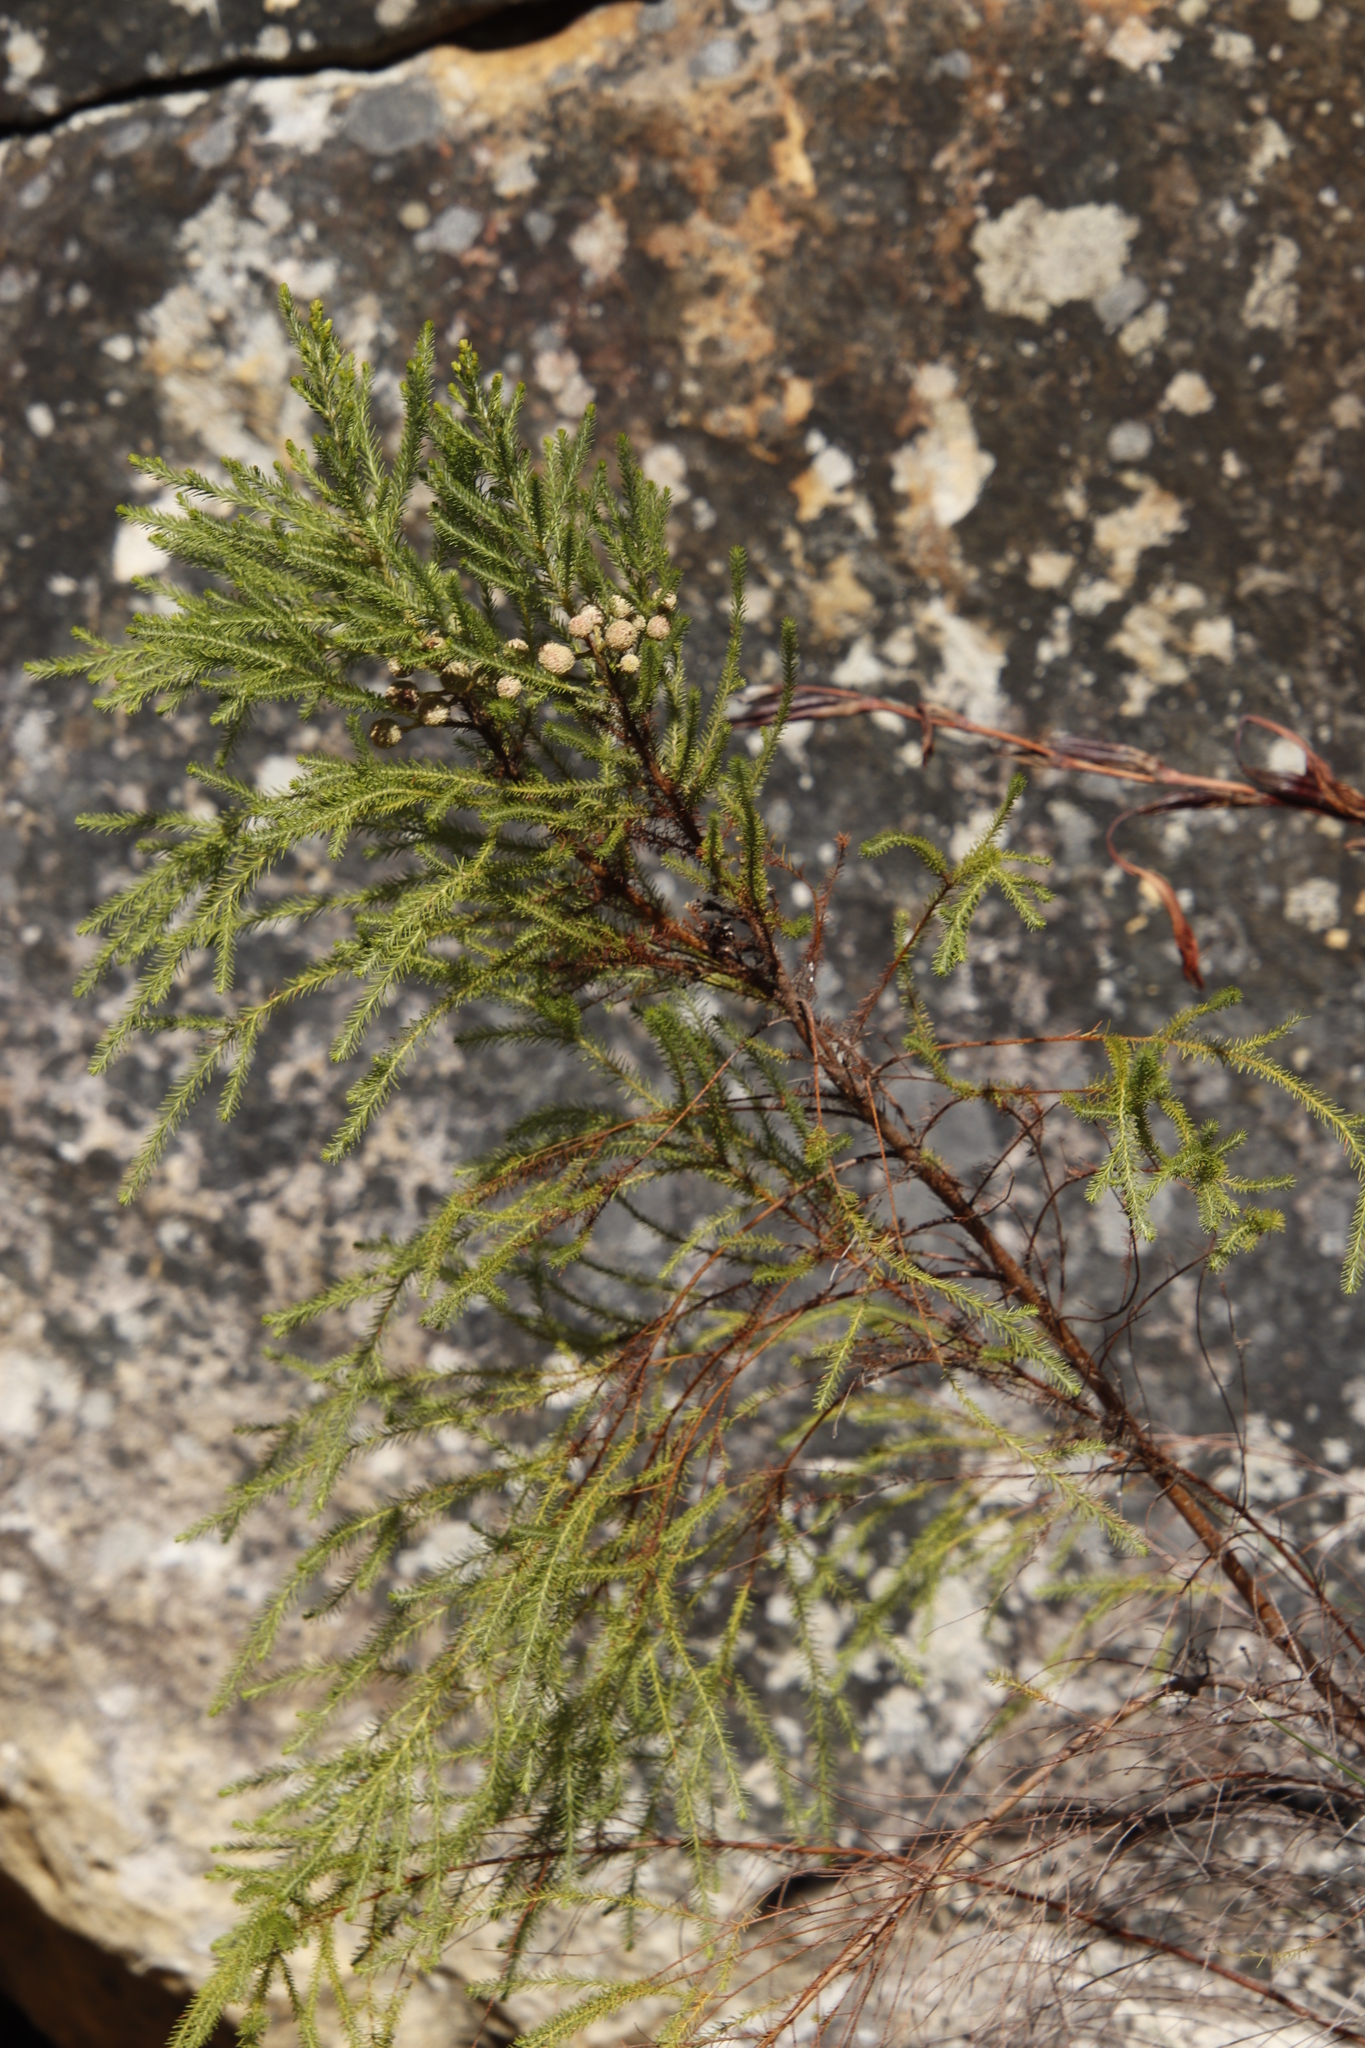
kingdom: Plantae
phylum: Tracheophyta
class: Magnoliopsida
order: Bruniales
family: Bruniaceae
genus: Berzelia
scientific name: Berzelia lanuginosa
